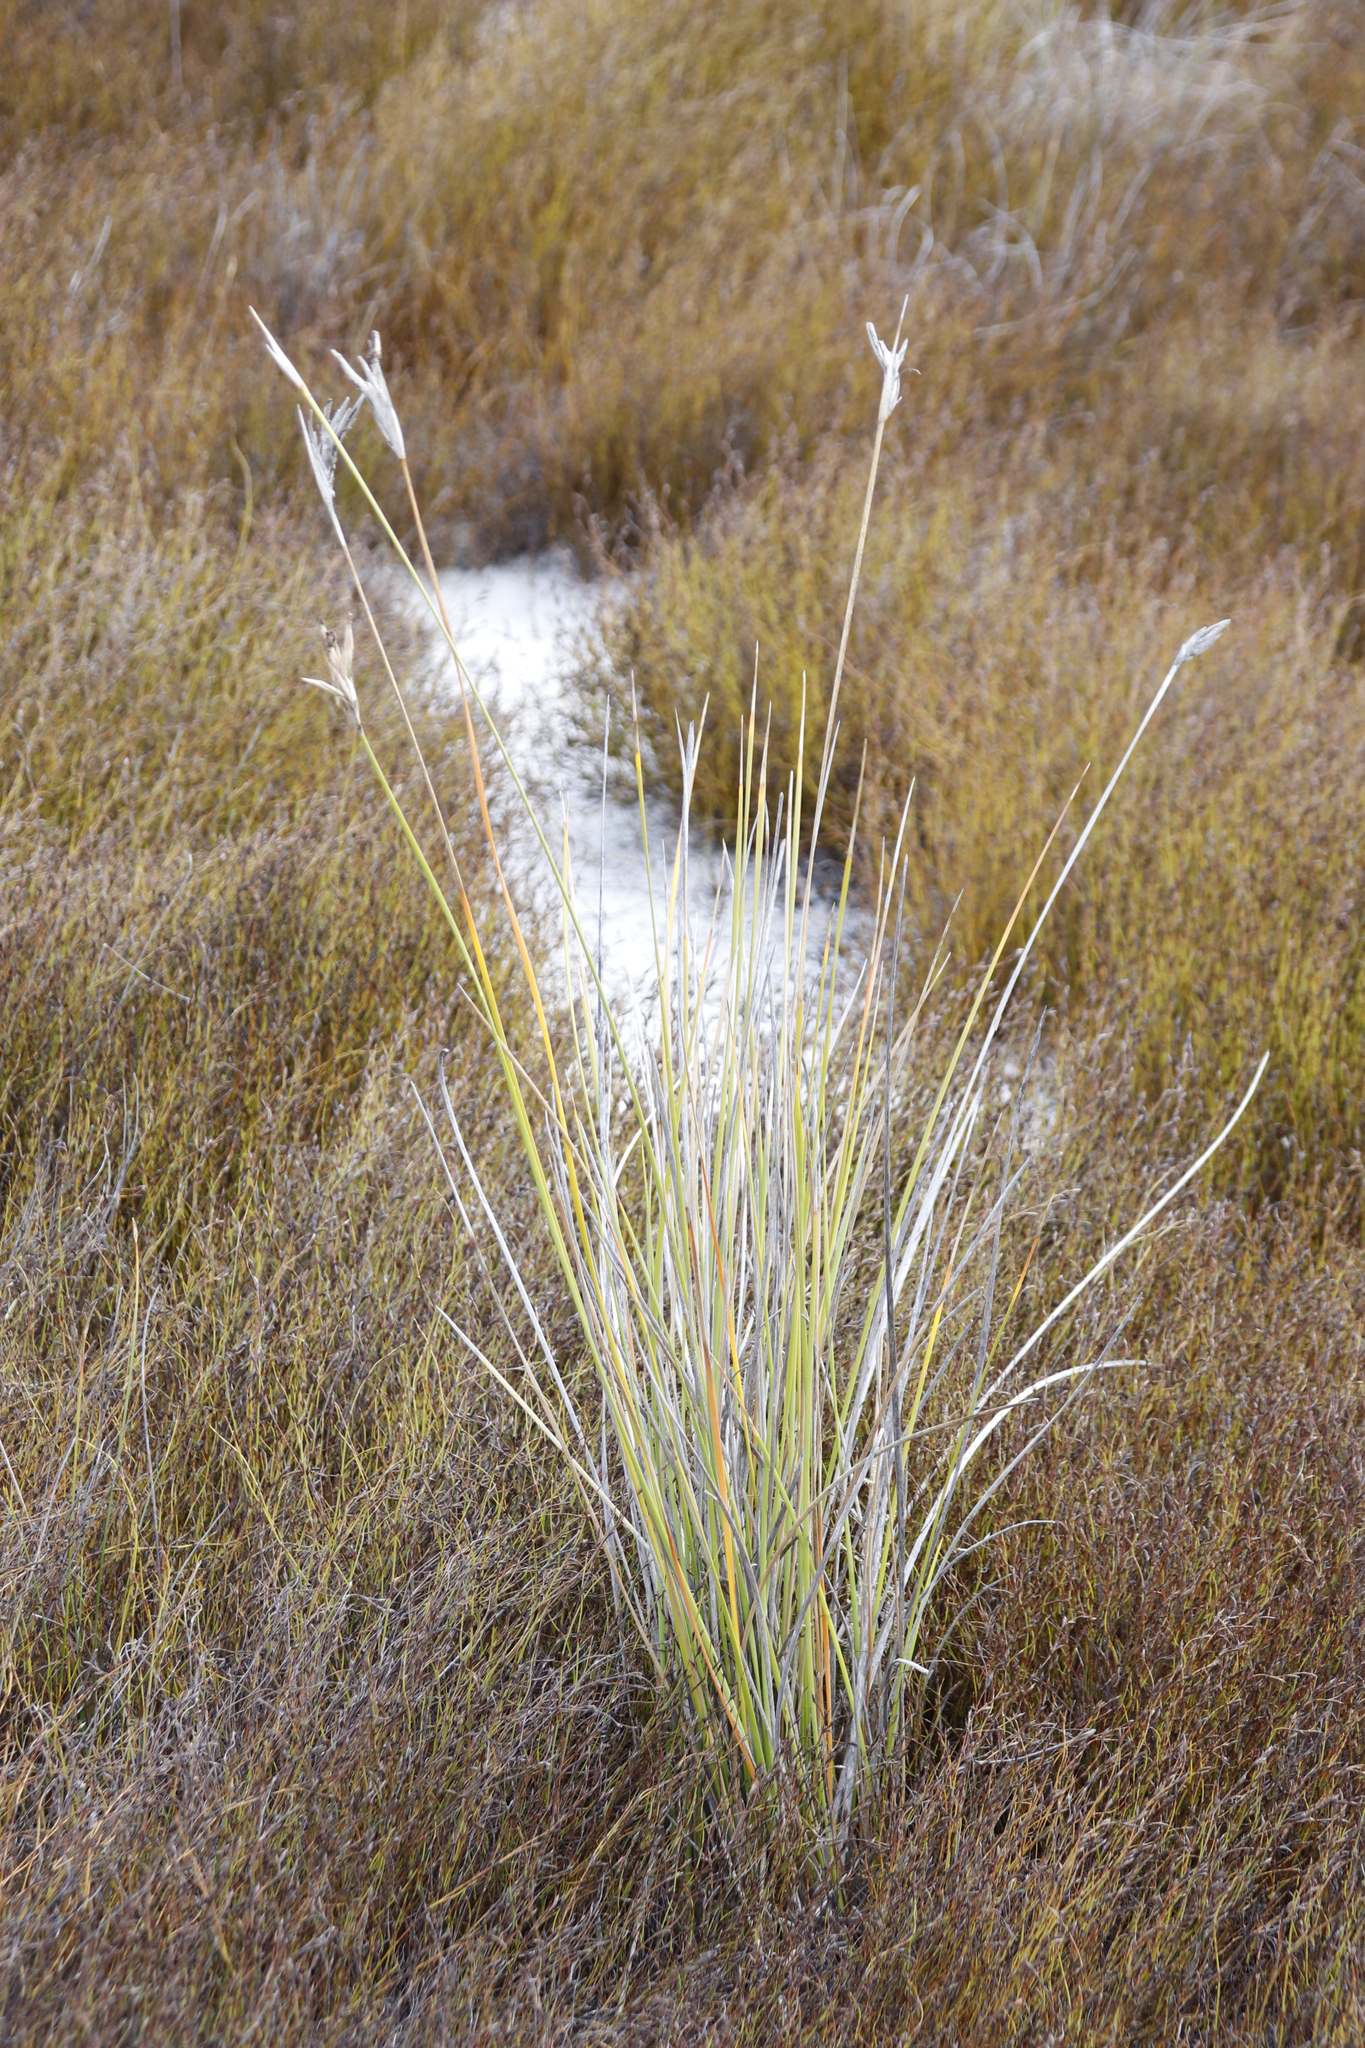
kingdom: Plantae
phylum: Tracheophyta
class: Liliopsida
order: Asparagales
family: Iridaceae
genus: Bobartia
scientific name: Bobartia gladiata
